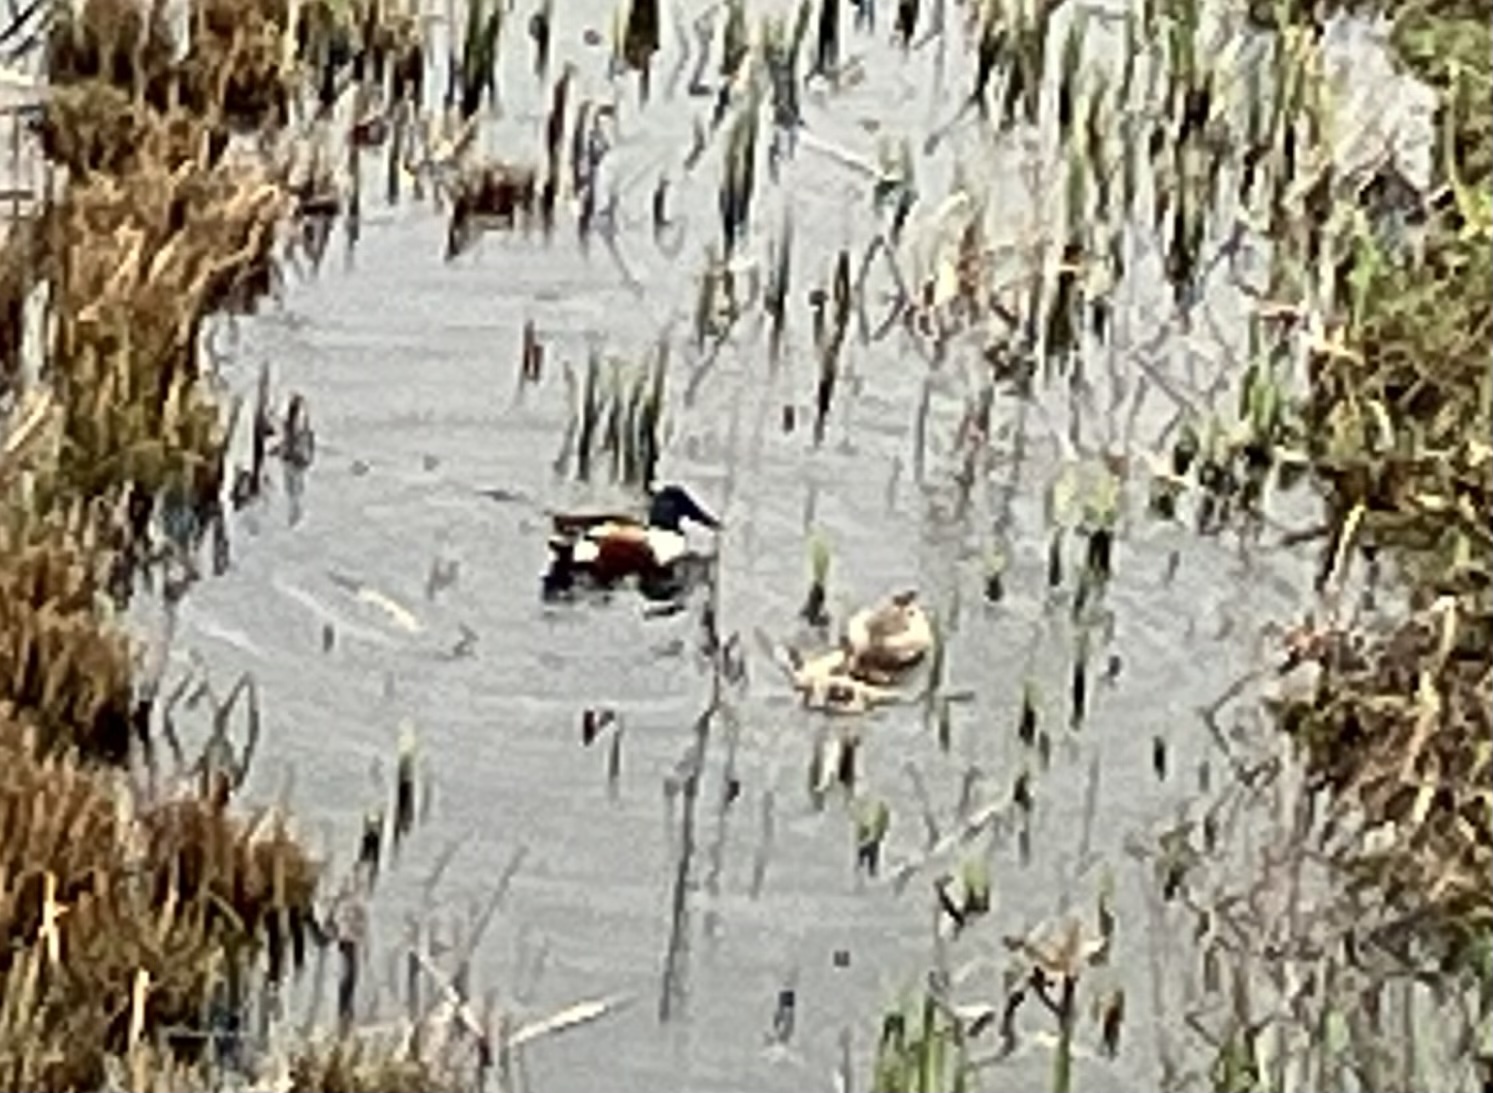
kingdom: Animalia
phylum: Chordata
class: Aves
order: Anseriformes
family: Anatidae
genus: Spatula
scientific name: Spatula clypeata
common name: Northern shoveler
